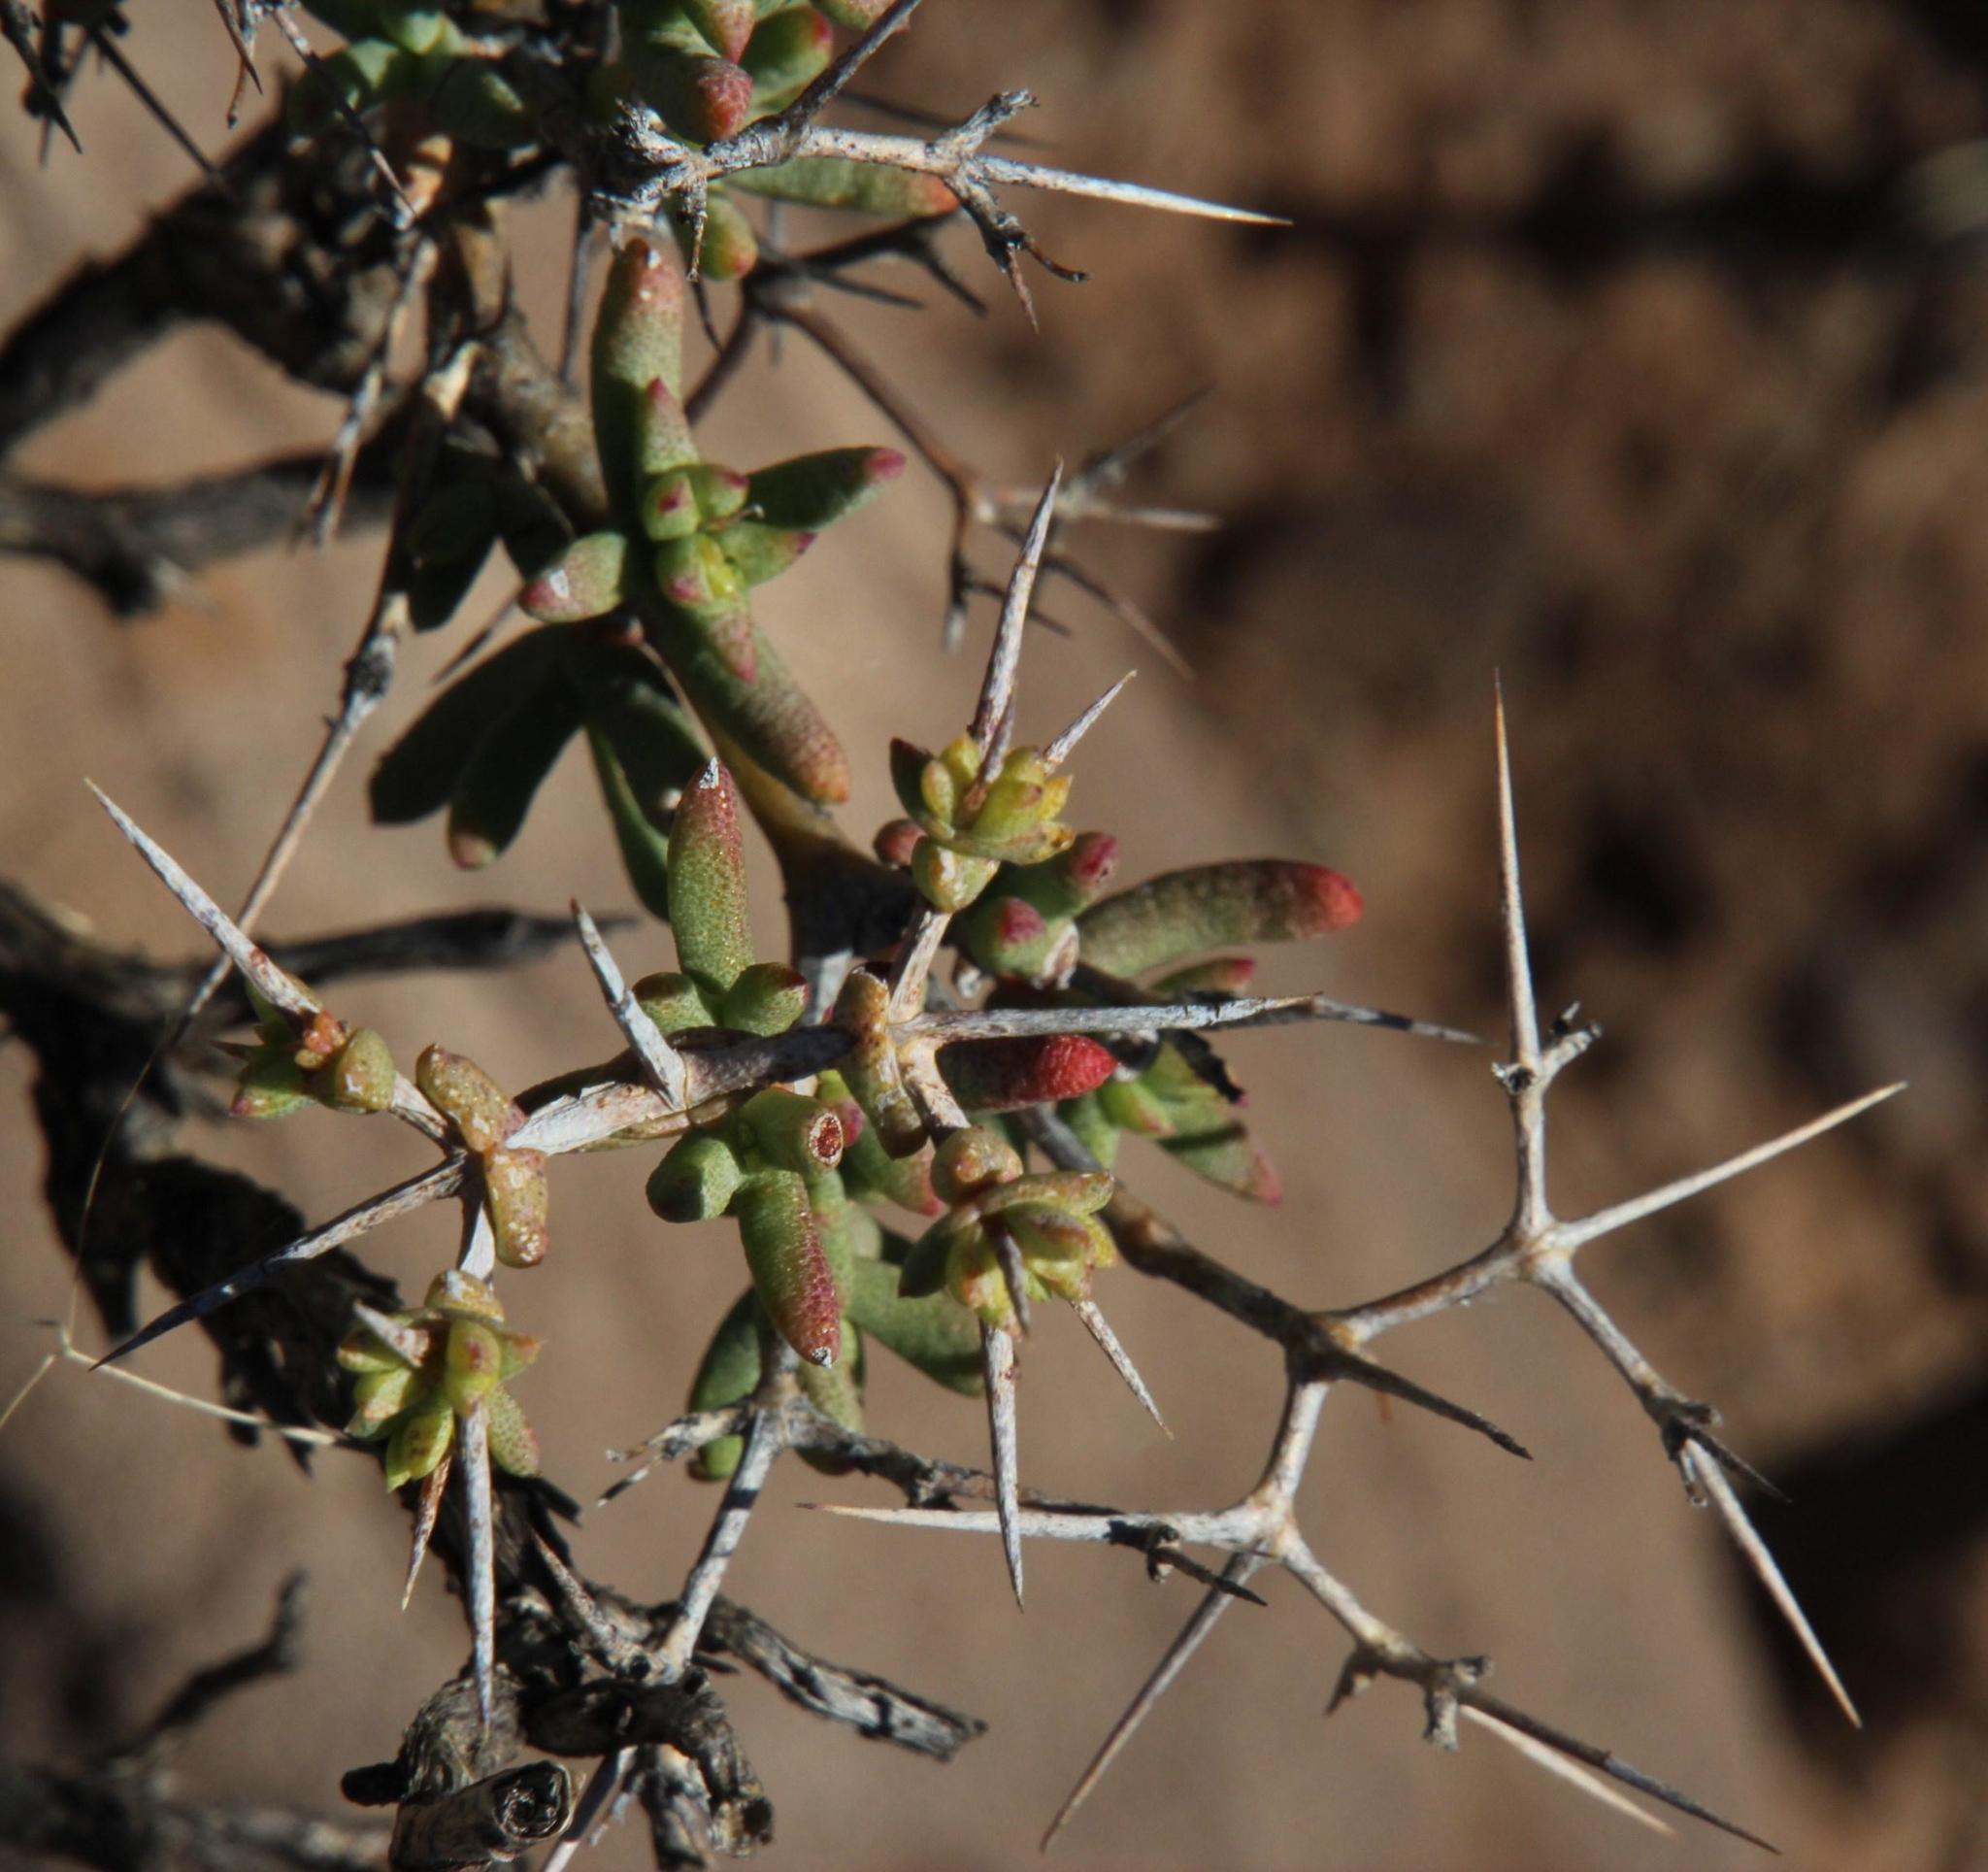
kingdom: Plantae
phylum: Tracheophyta
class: Magnoliopsida
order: Caryophyllales
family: Aizoaceae
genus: Ruschia
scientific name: Ruschia intricata
